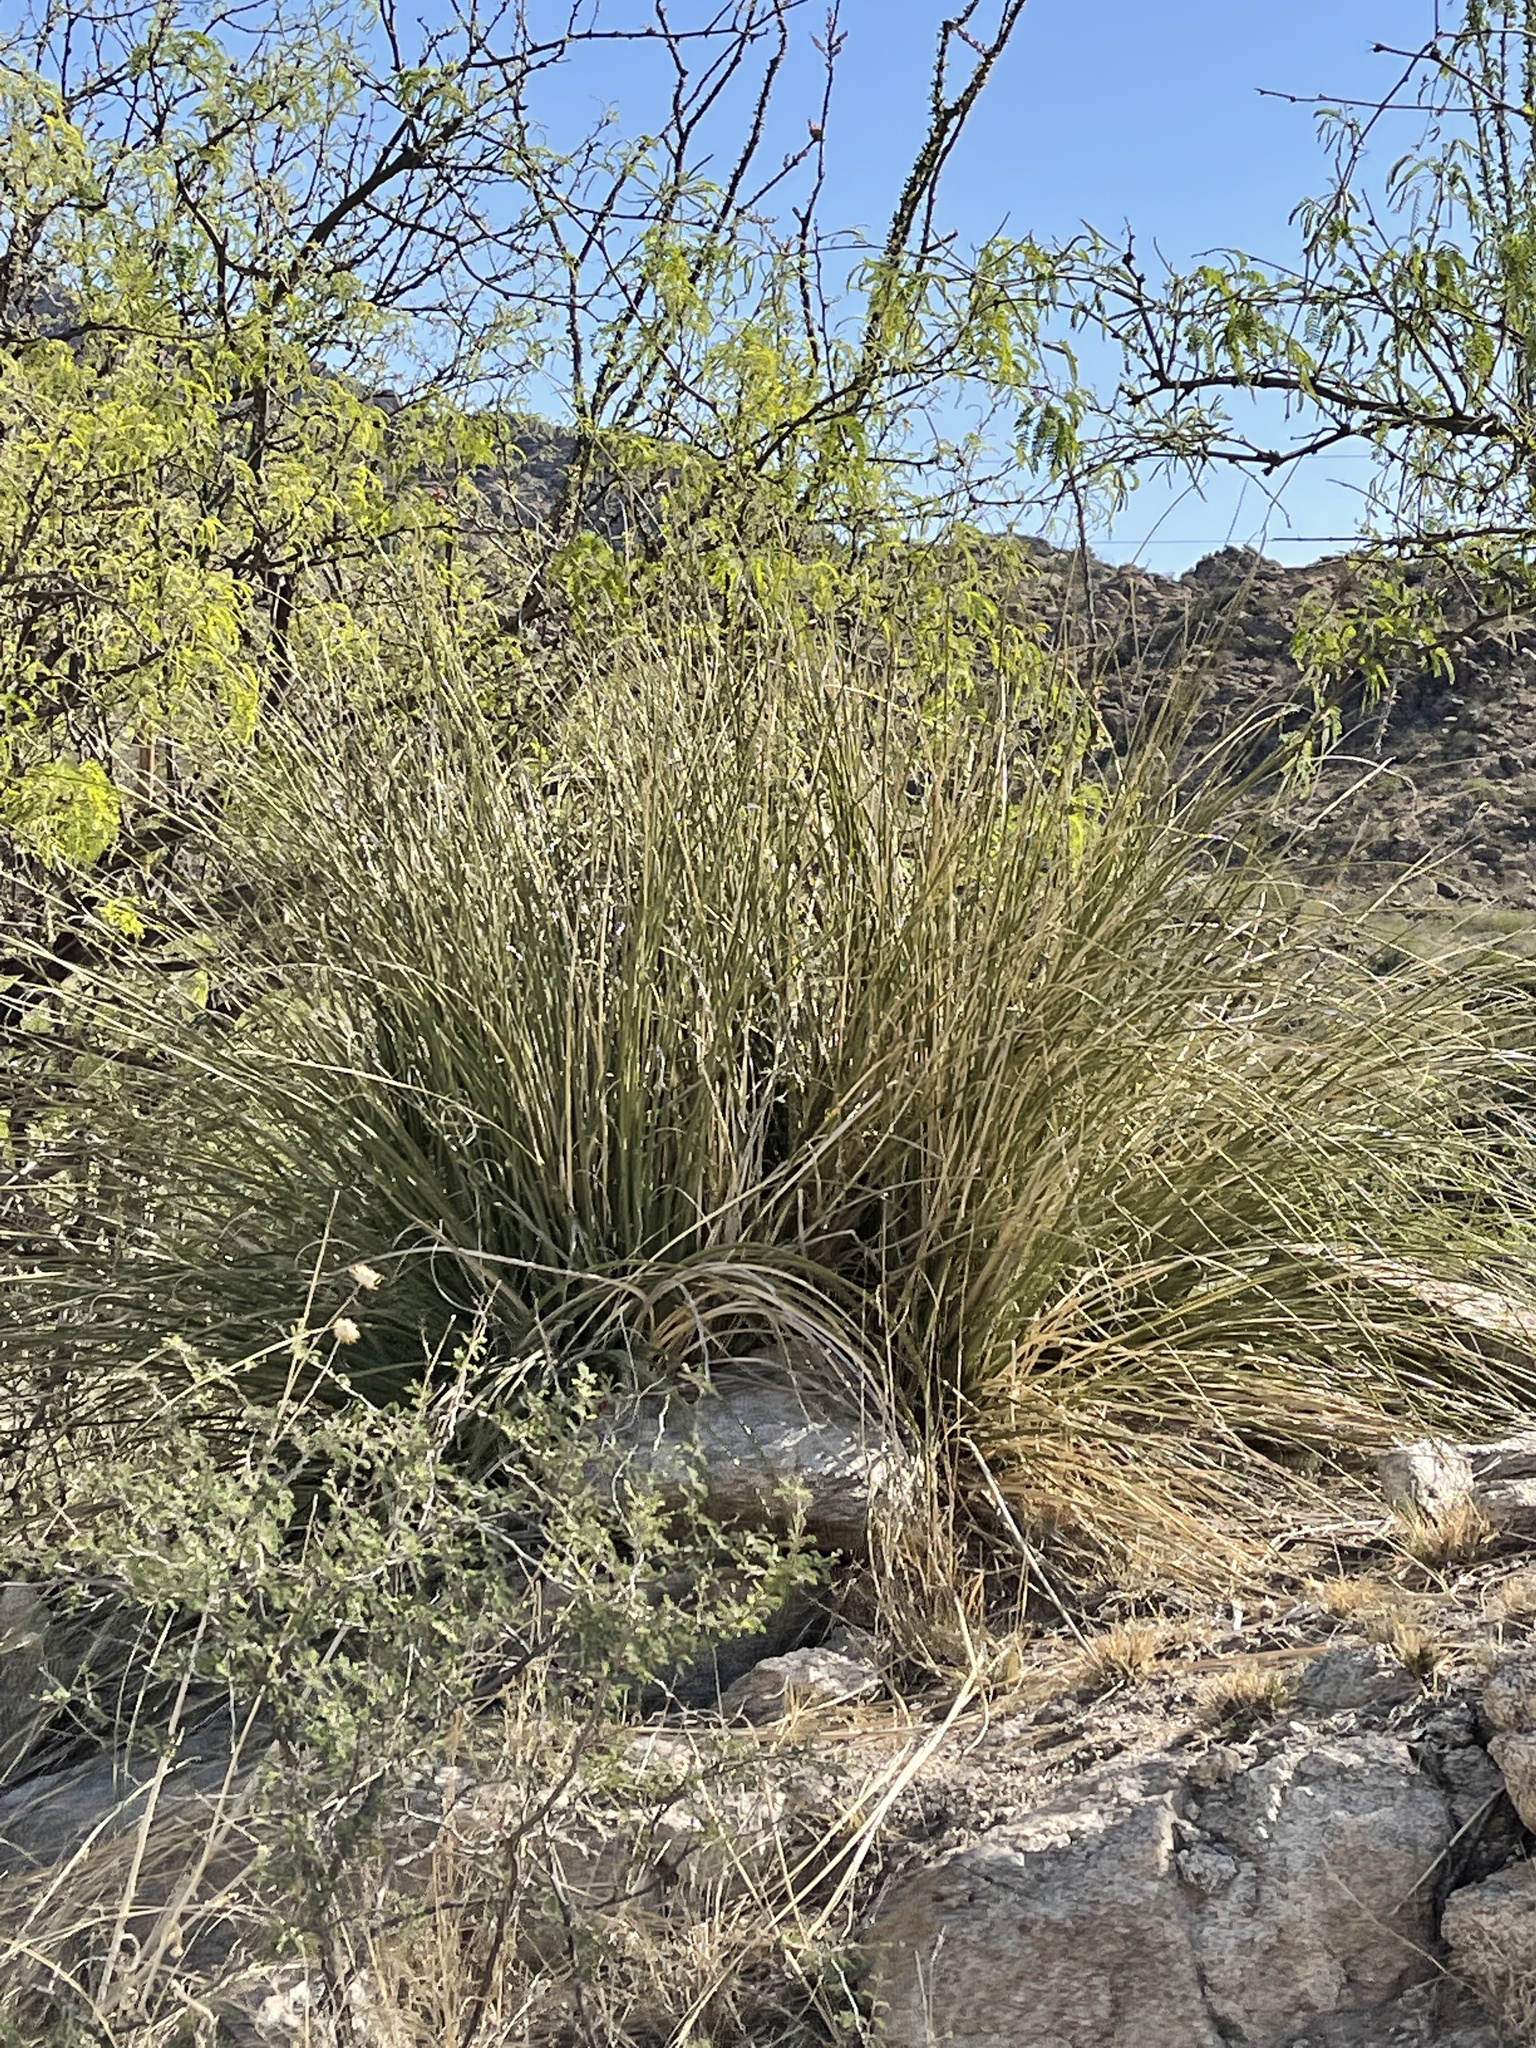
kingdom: Plantae
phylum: Tracheophyta
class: Liliopsida
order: Asparagales
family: Asparagaceae
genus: Nolina
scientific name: Nolina microcarpa
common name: Bear-grass
